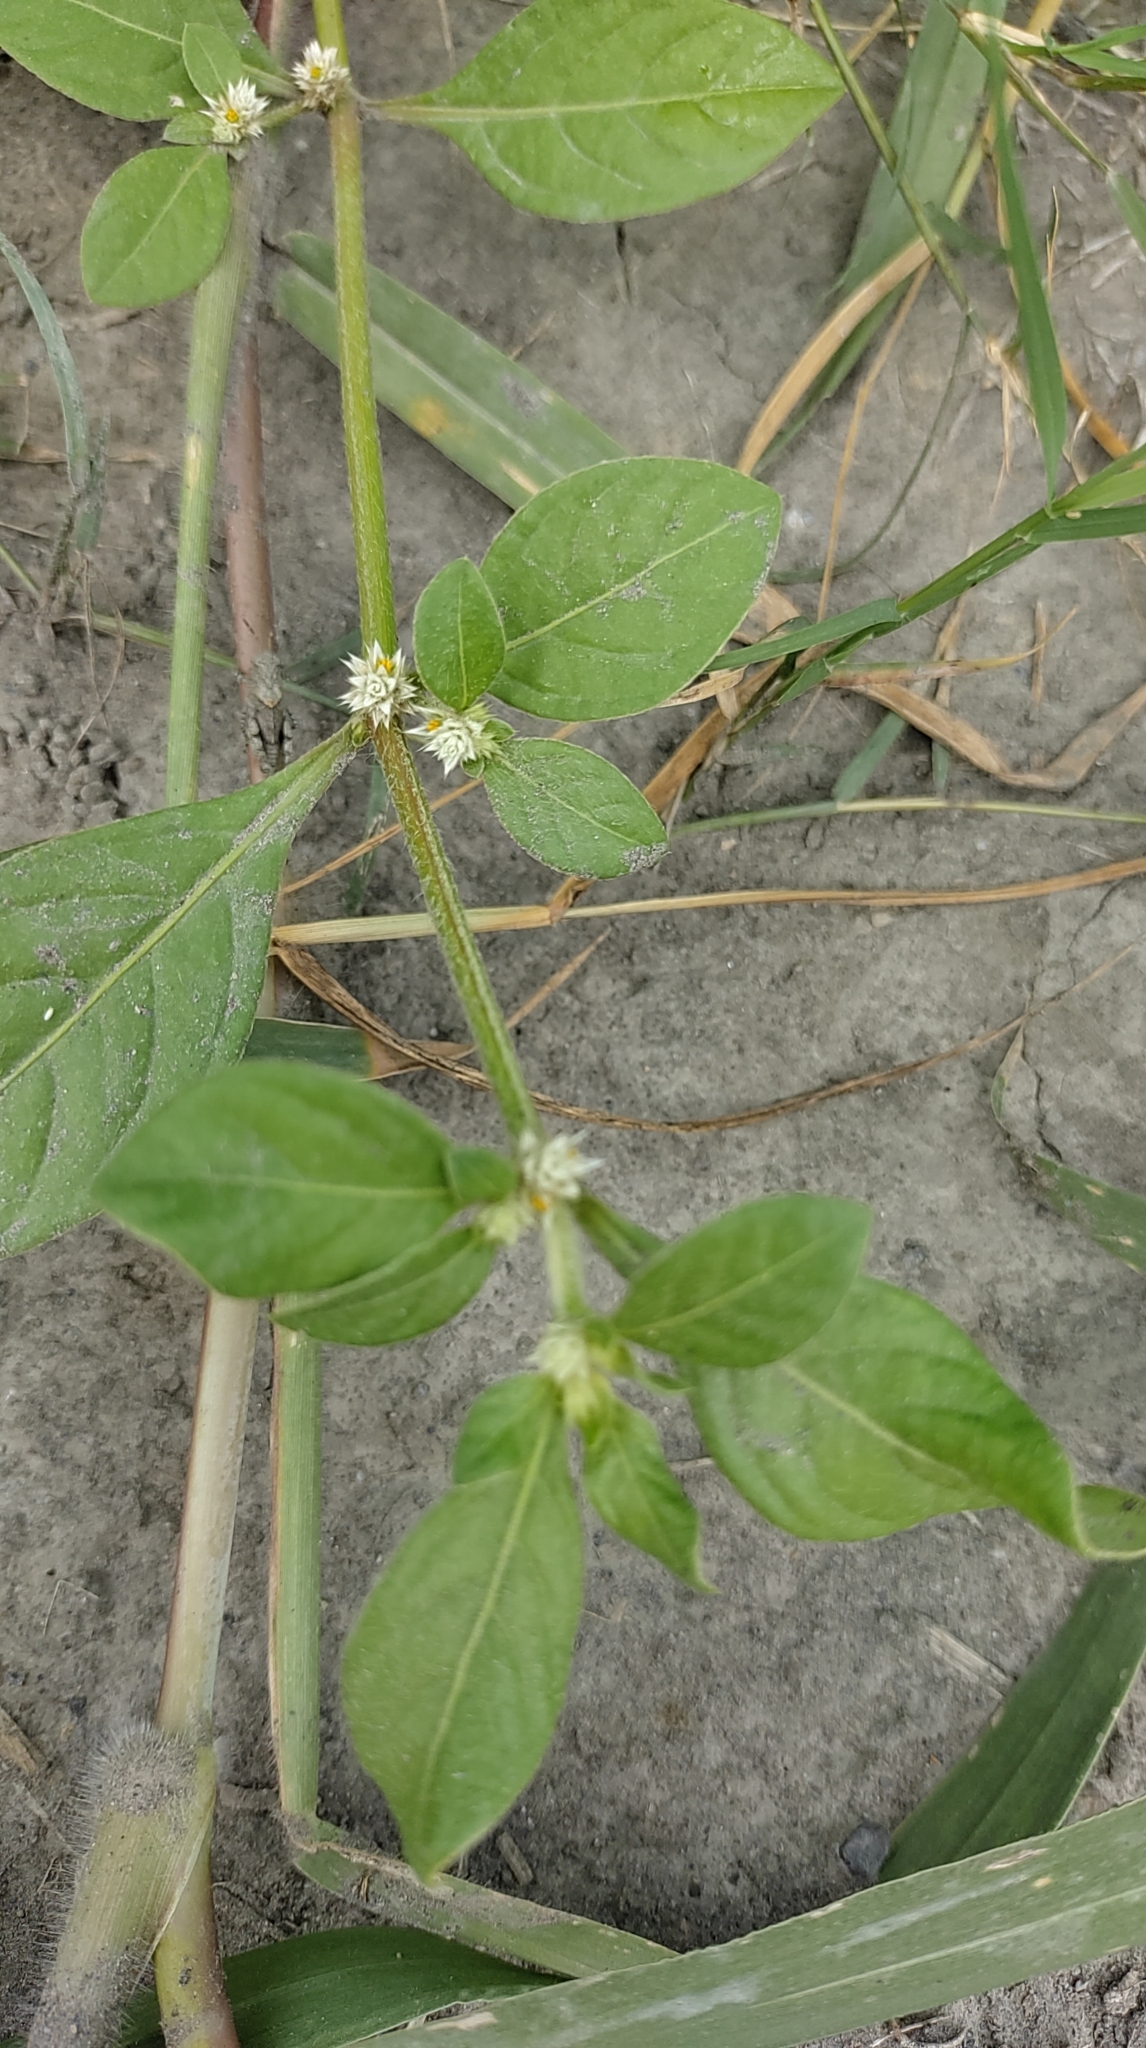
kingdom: Plantae
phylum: Tracheophyta
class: Magnoliopsida
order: Caryophyllales
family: Amaranthaceae
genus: Alternanthera
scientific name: Alternanthera sessilis
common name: Sessile joyweed
